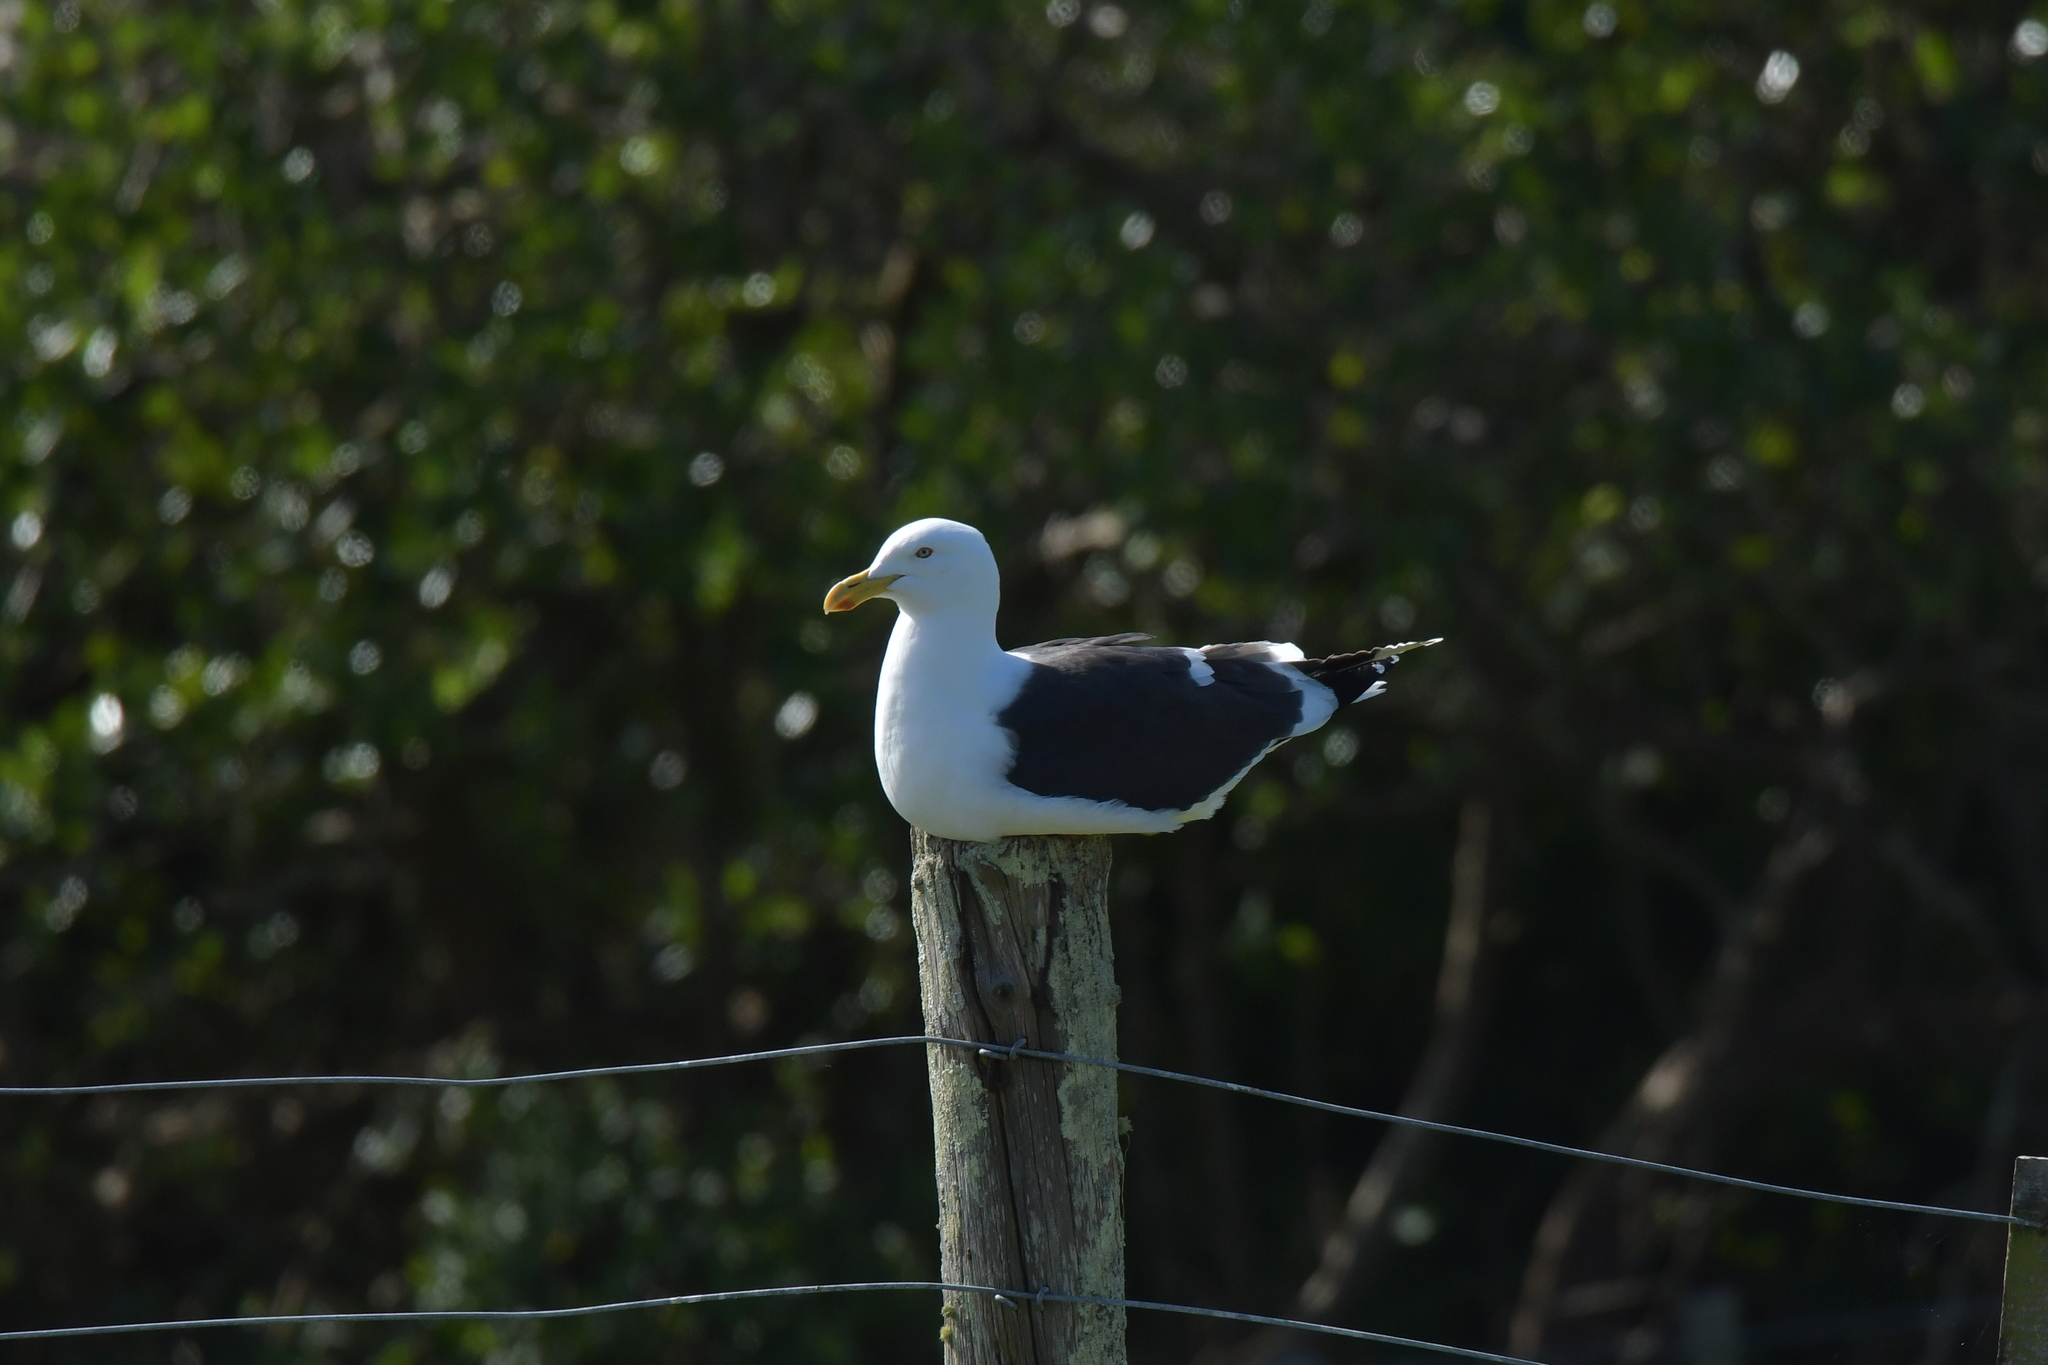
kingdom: Animalia
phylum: Chordata
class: Aves
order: Charadriiformes
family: Laridae
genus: Larus
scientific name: Larus dominicanus
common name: Kelp gull
